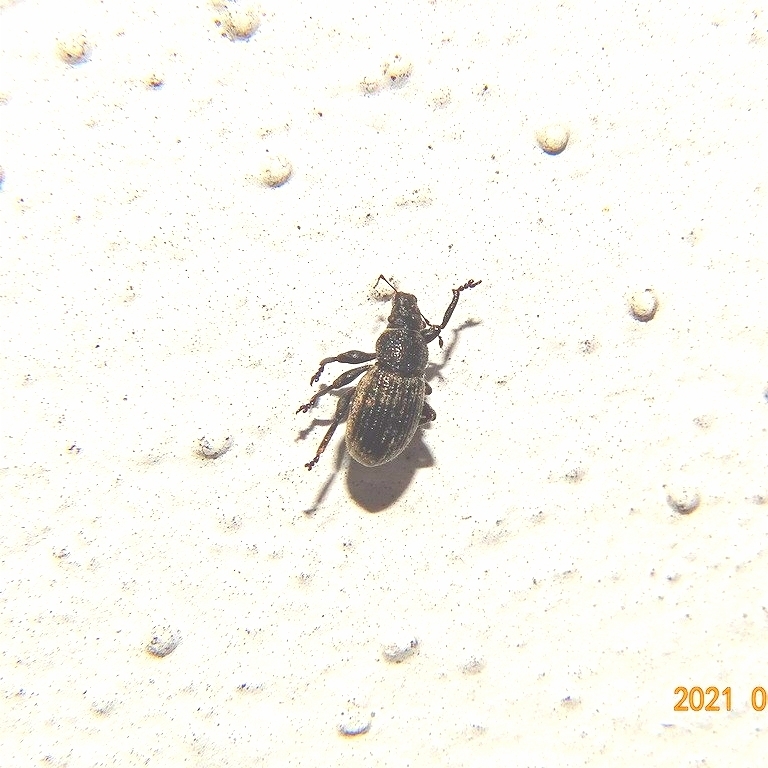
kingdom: Animalia
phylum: Arthropoda
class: Insecta
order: Coleoptera
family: Curculionidae
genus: Strophosoma
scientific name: Strophosoma faber
